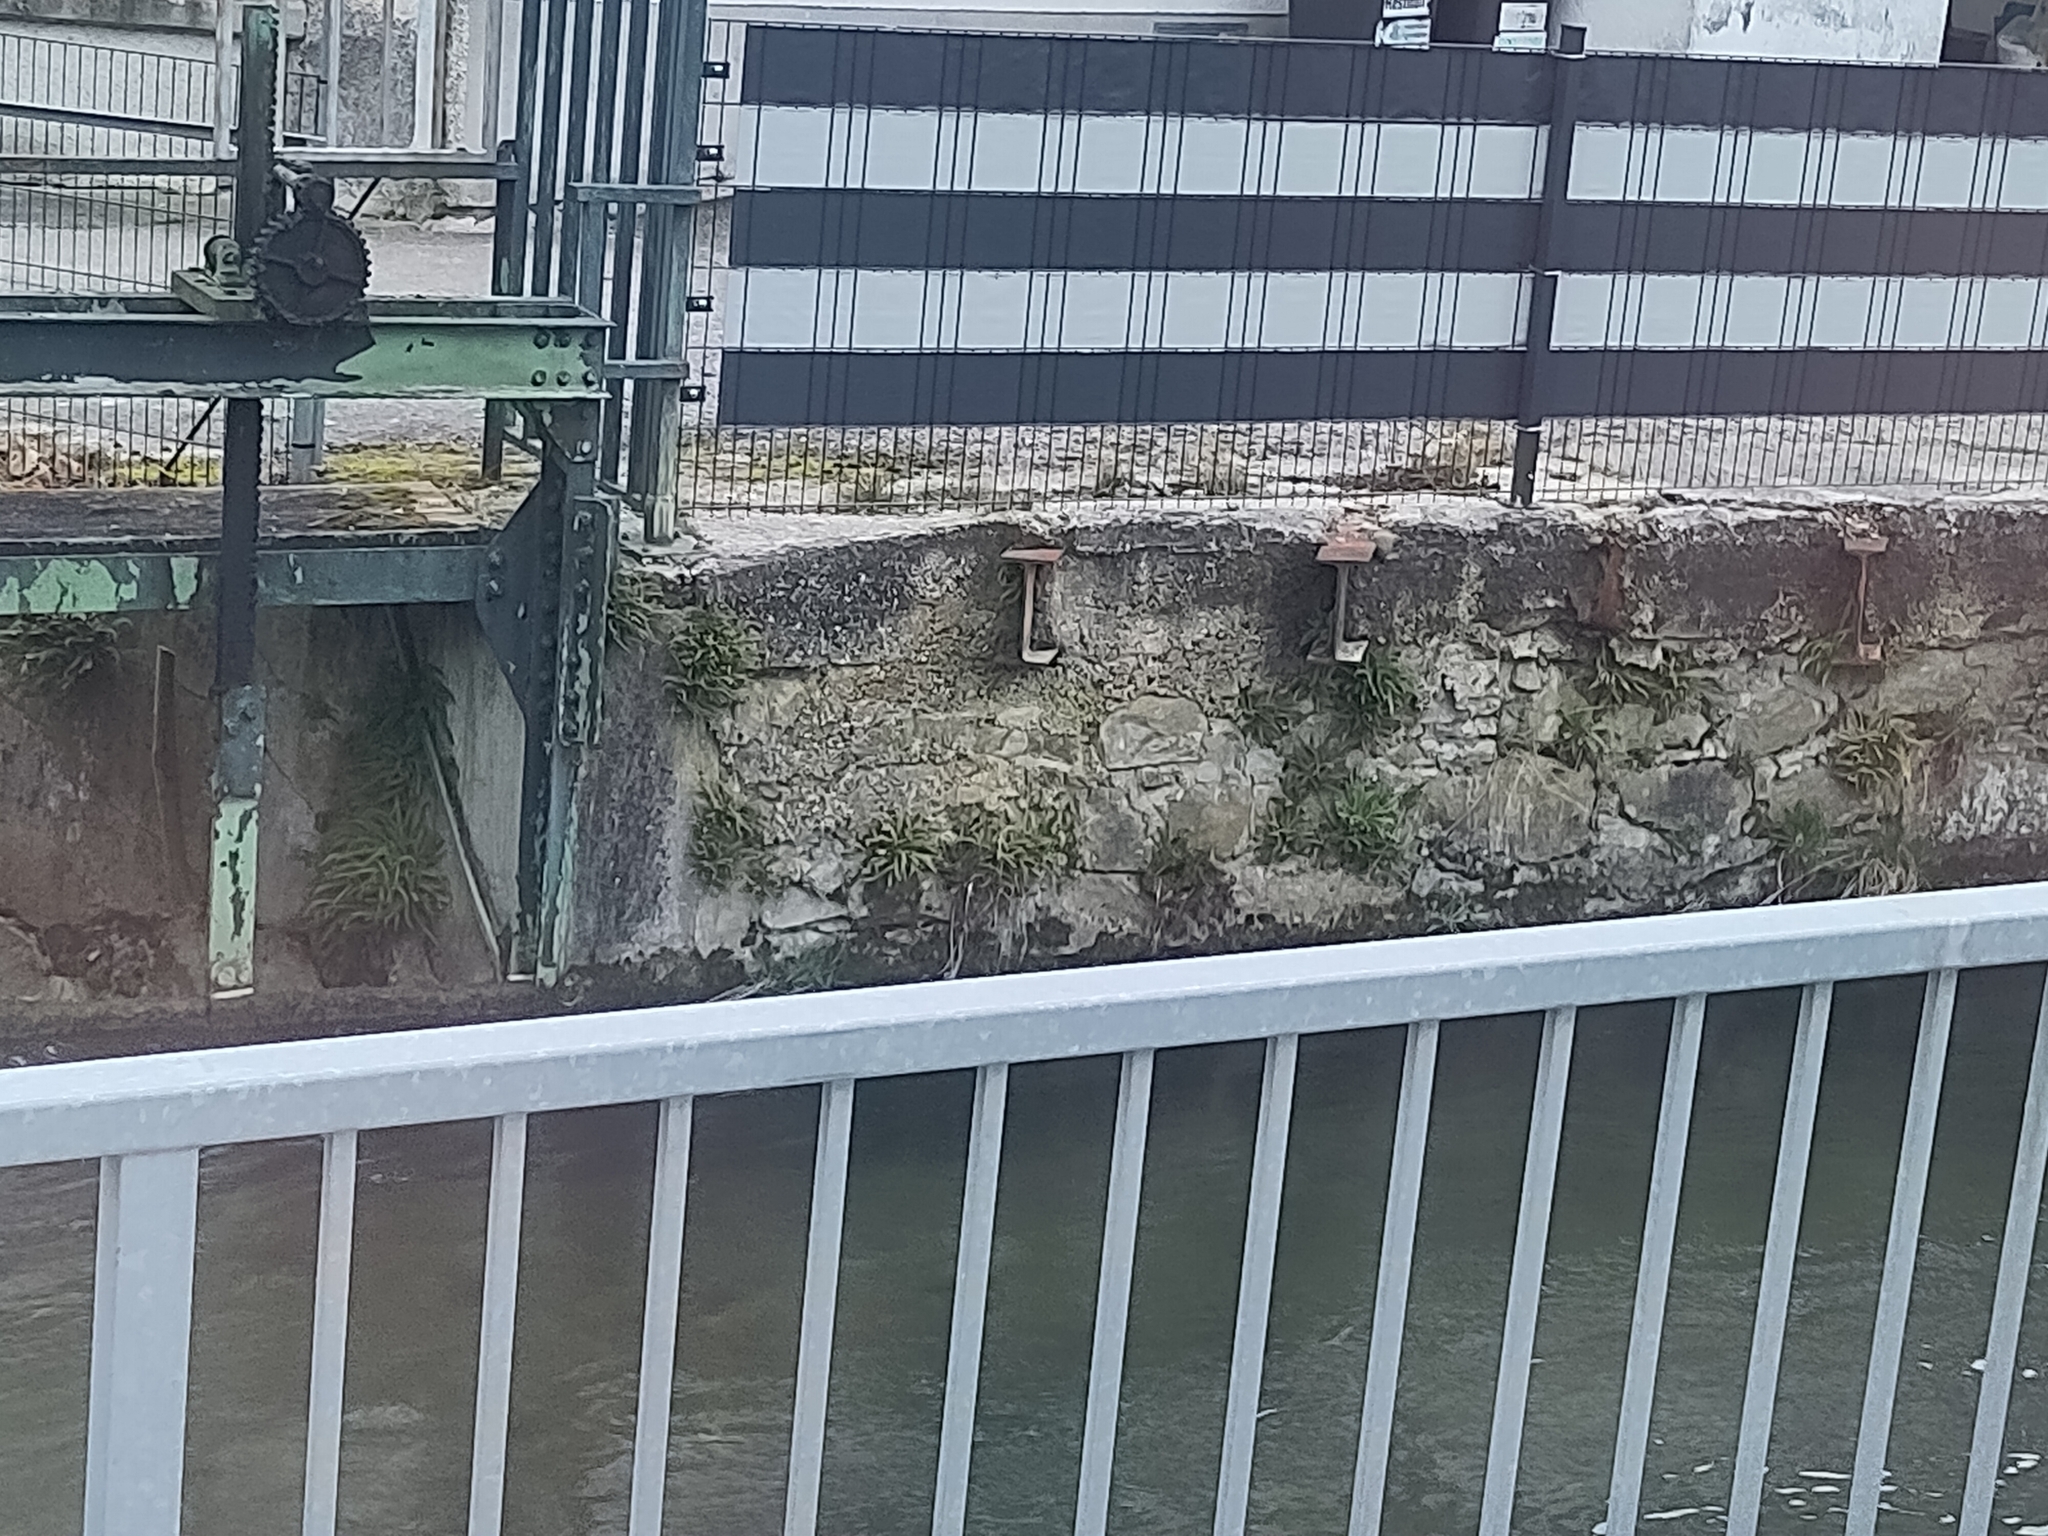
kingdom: Plantae
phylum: Tracheophyta
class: Polypodiopsida
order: Polypodiales
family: Aspleniaceae
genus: Asplenium
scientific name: Asplenium trichomanes
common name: Maidenhair spleenwort
